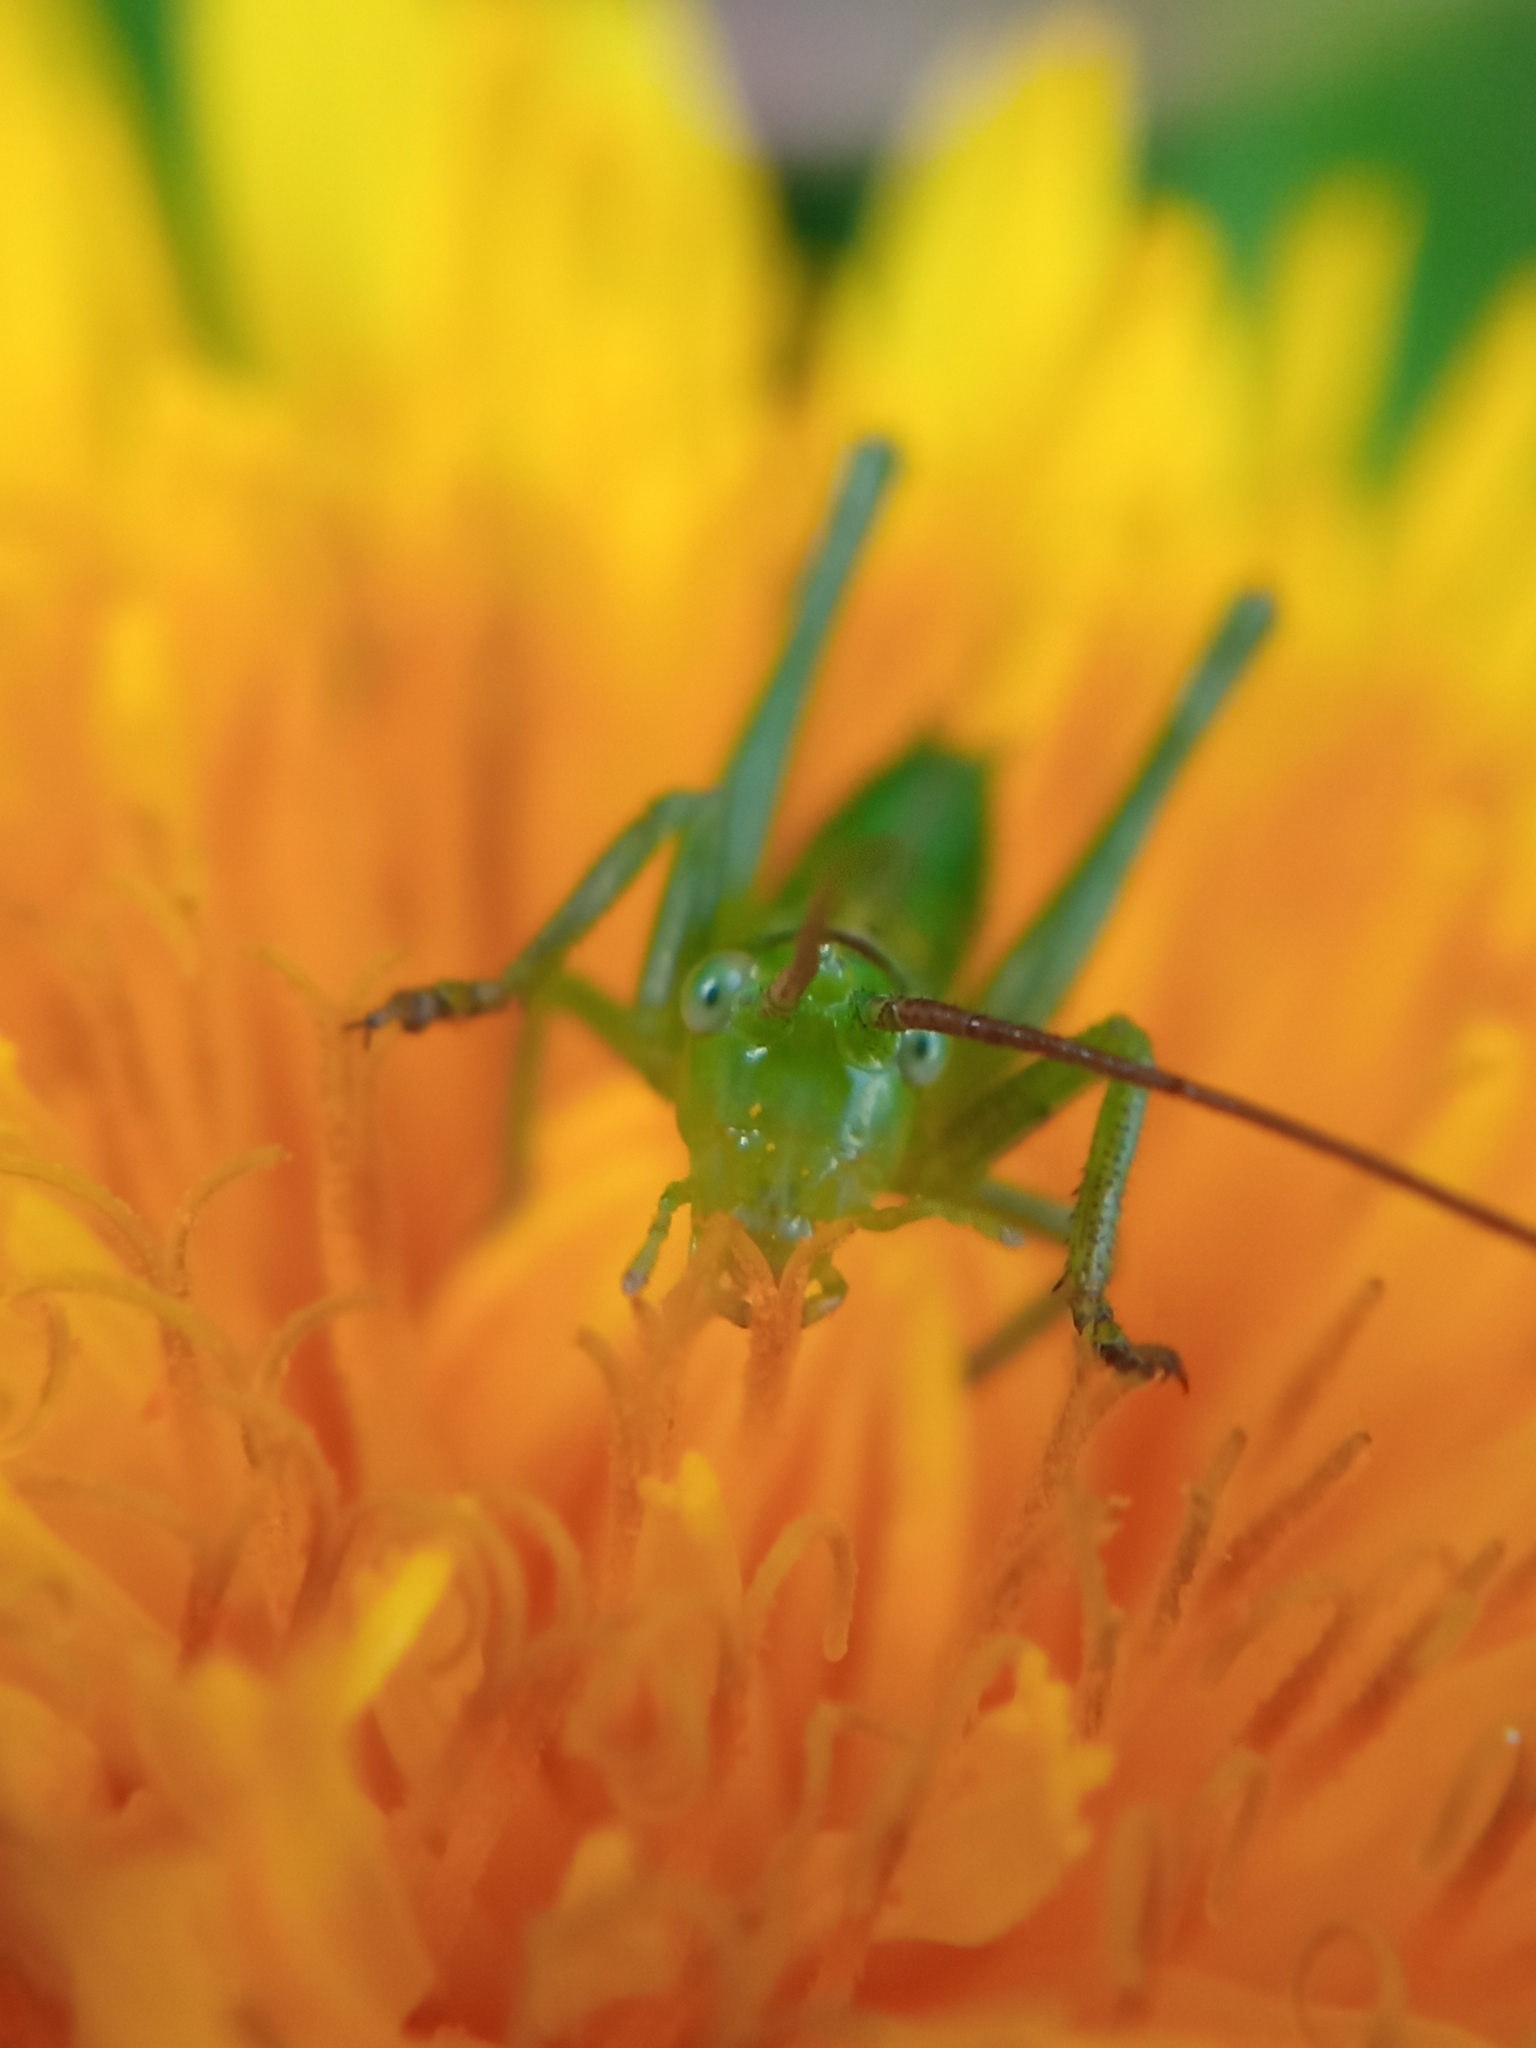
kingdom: Animalia
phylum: Arthropoda
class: Insecta
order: Orthoptera
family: Tettigoniidae
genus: Tettigonia
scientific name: Tettigonia viridissima
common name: Great green bush-cricket
